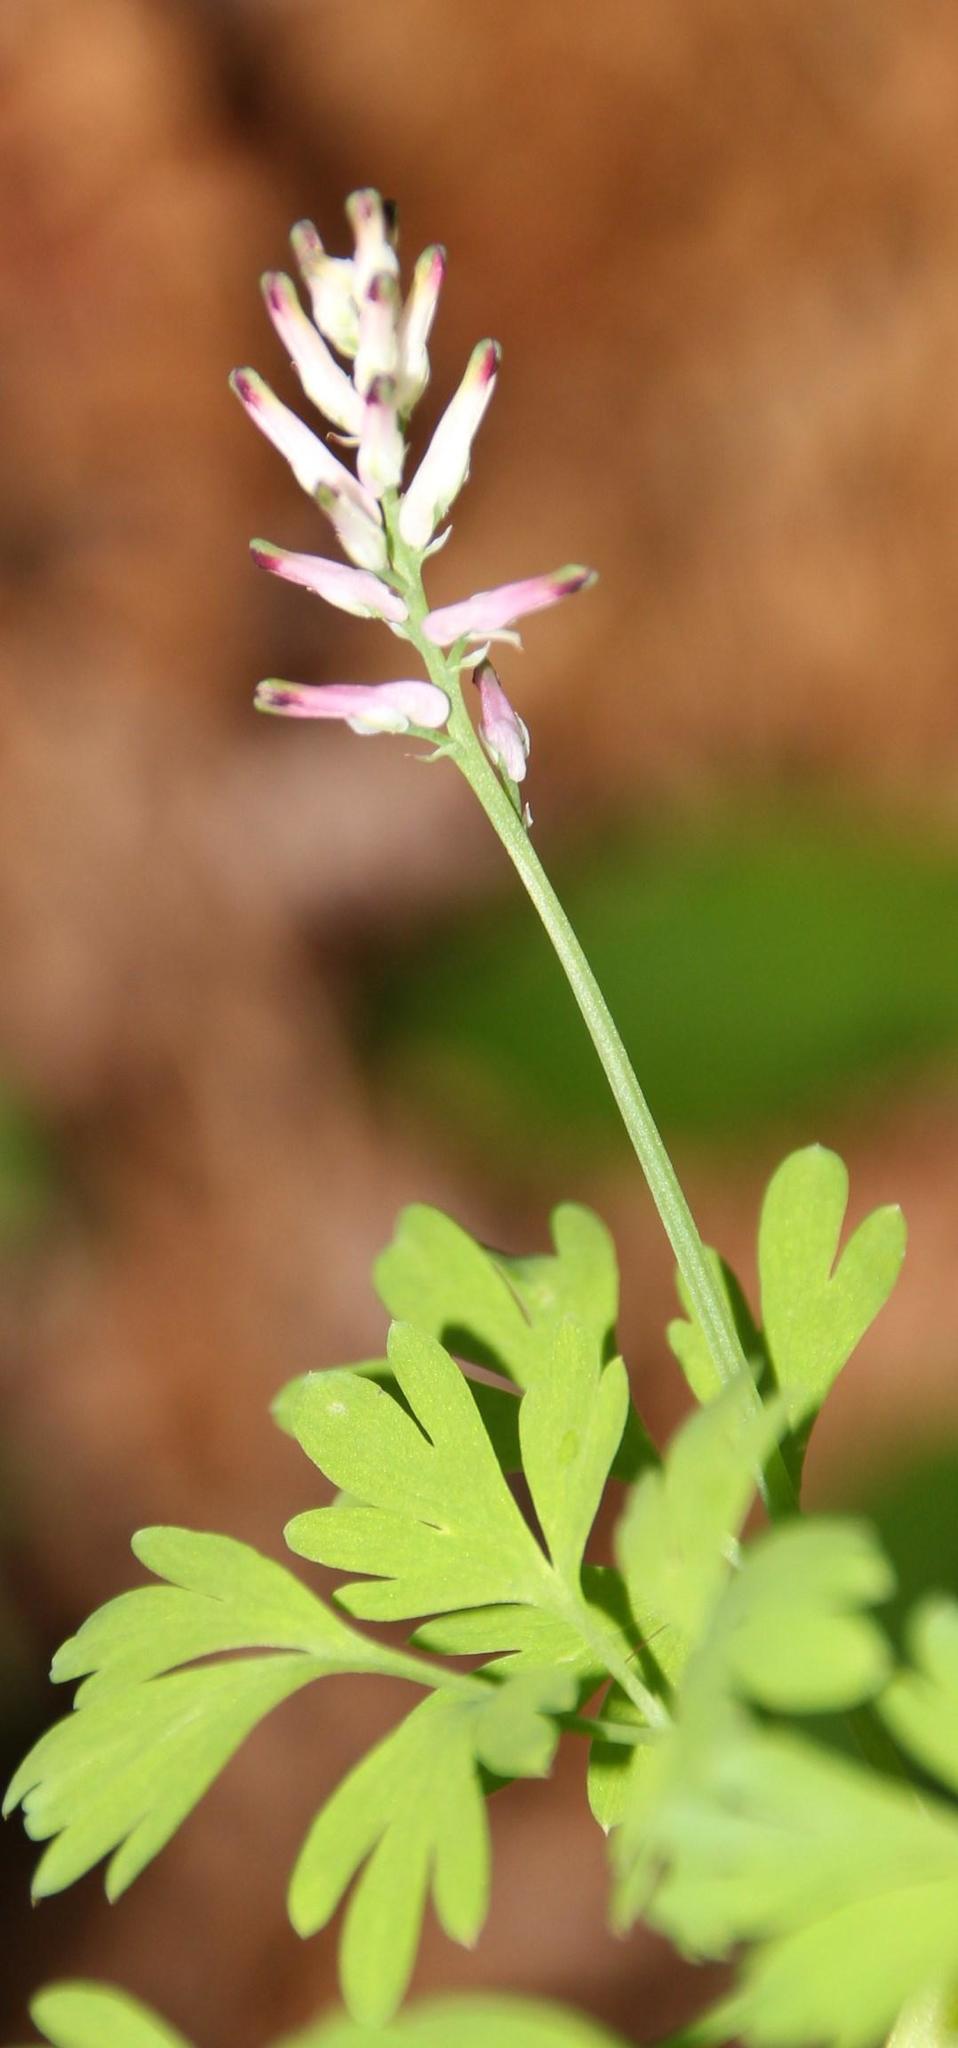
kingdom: Plantae
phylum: Tracheophyta
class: Magnoliopsida
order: Ranunculales
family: Papaveraceae
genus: Fumaria
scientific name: Fumaria muralis
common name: Common ramping-fumitory
